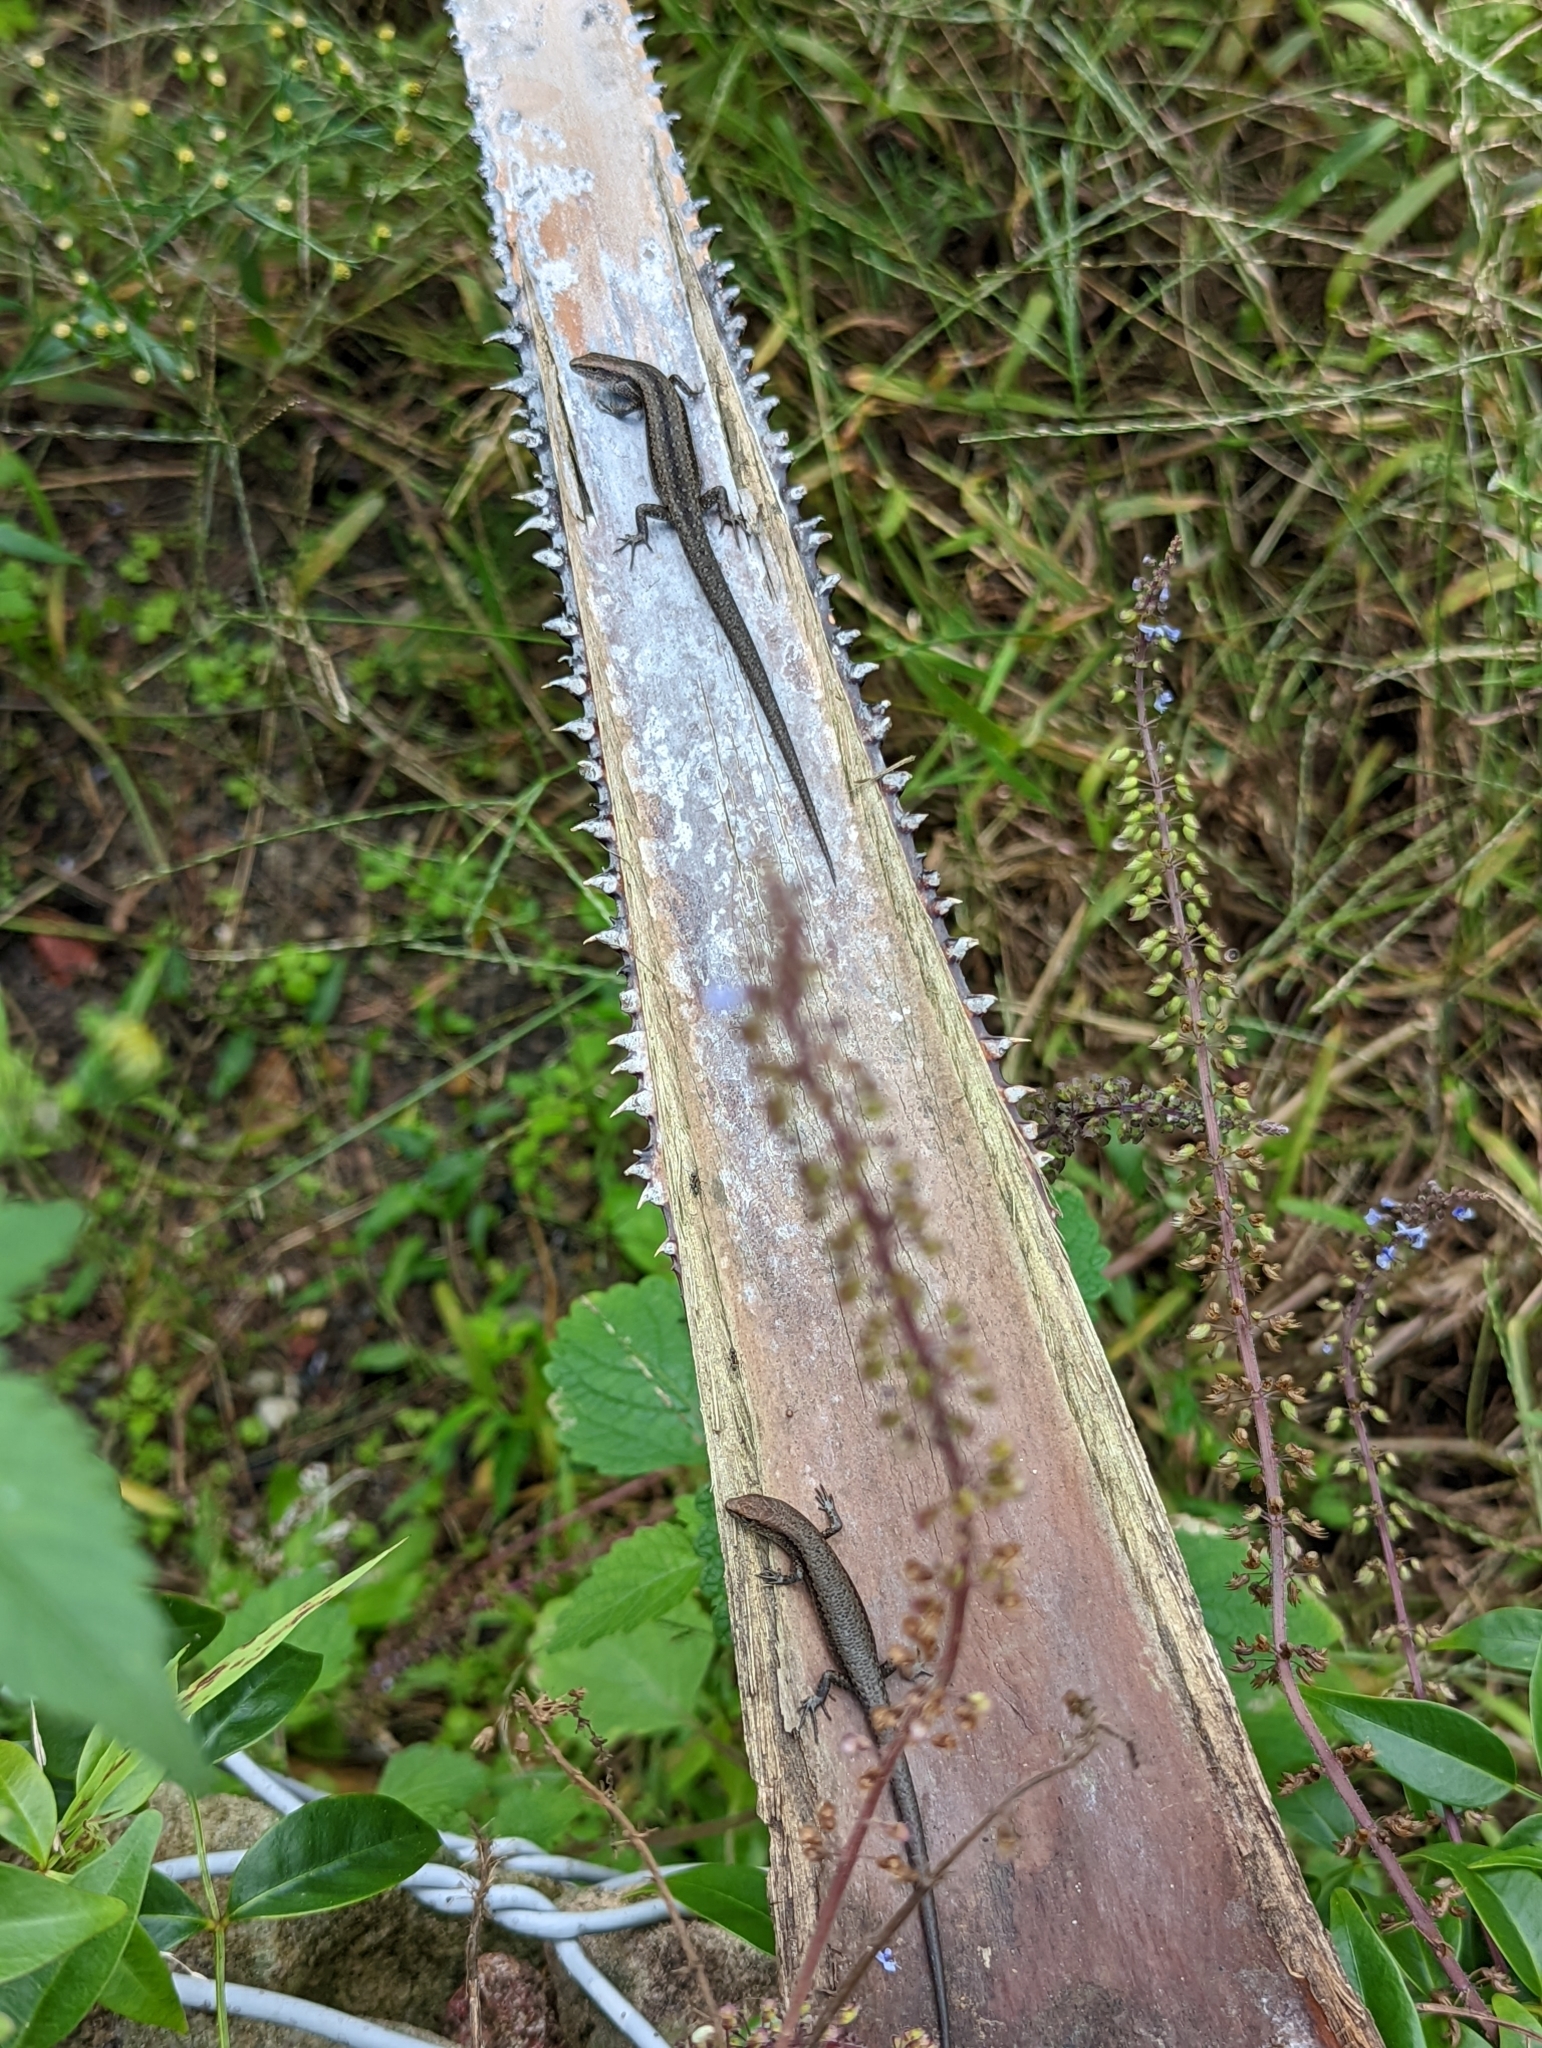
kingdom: Animalia
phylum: Chordata
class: Squamata
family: Scincidae
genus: Lampropholis
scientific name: Lampropholis guichenoti
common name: Garden skink
